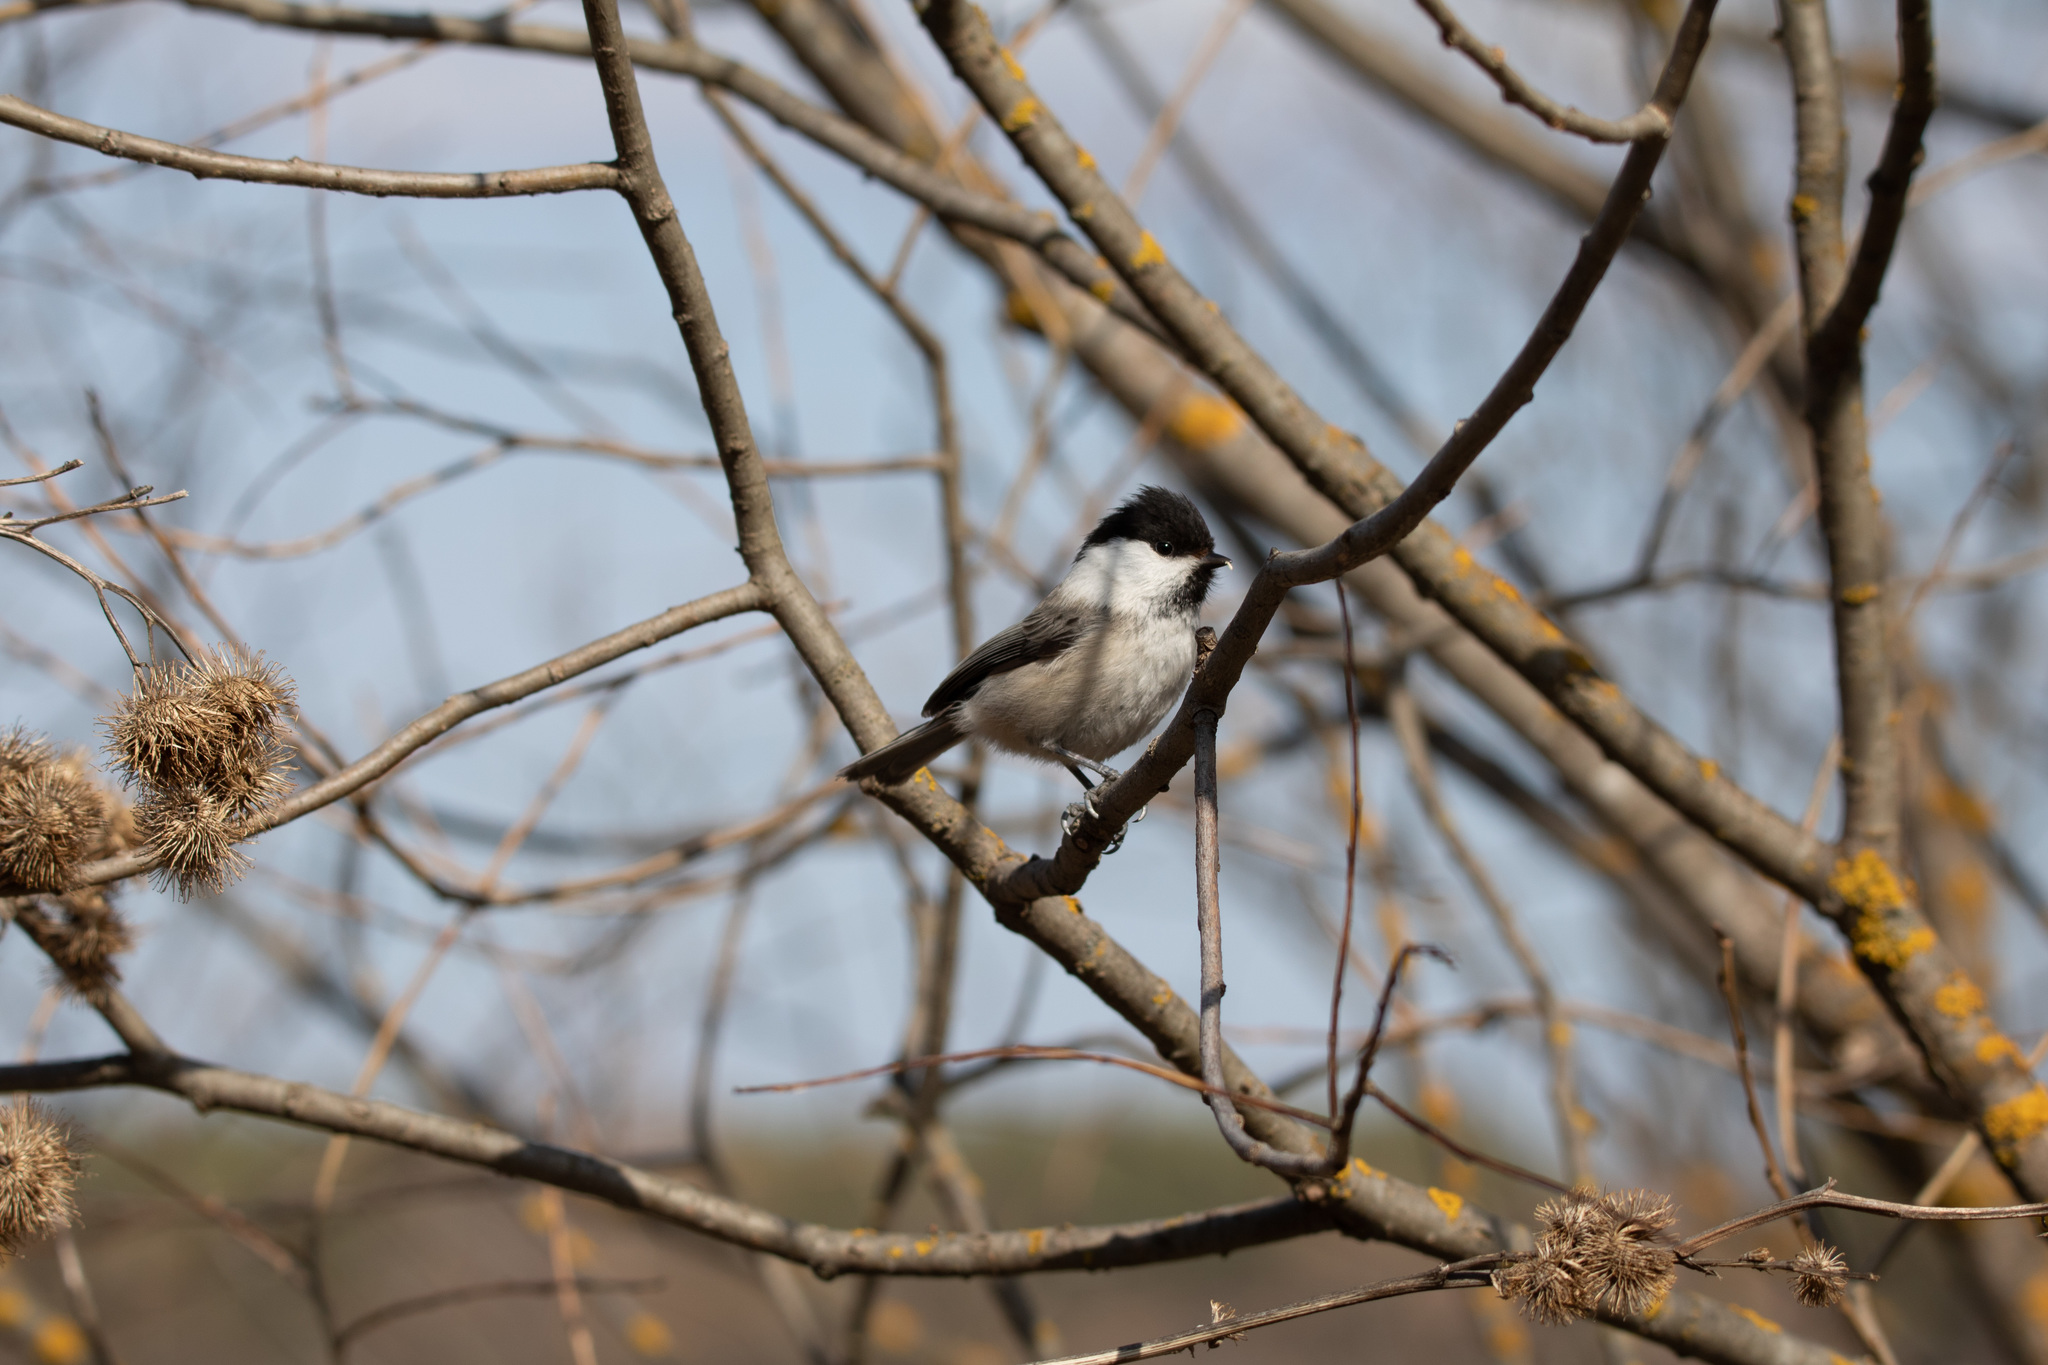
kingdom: Animalia
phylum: Chordata
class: Aves
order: Passeriformes
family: Paridae
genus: Poecile
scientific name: Poecile montanus
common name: Willow tit
